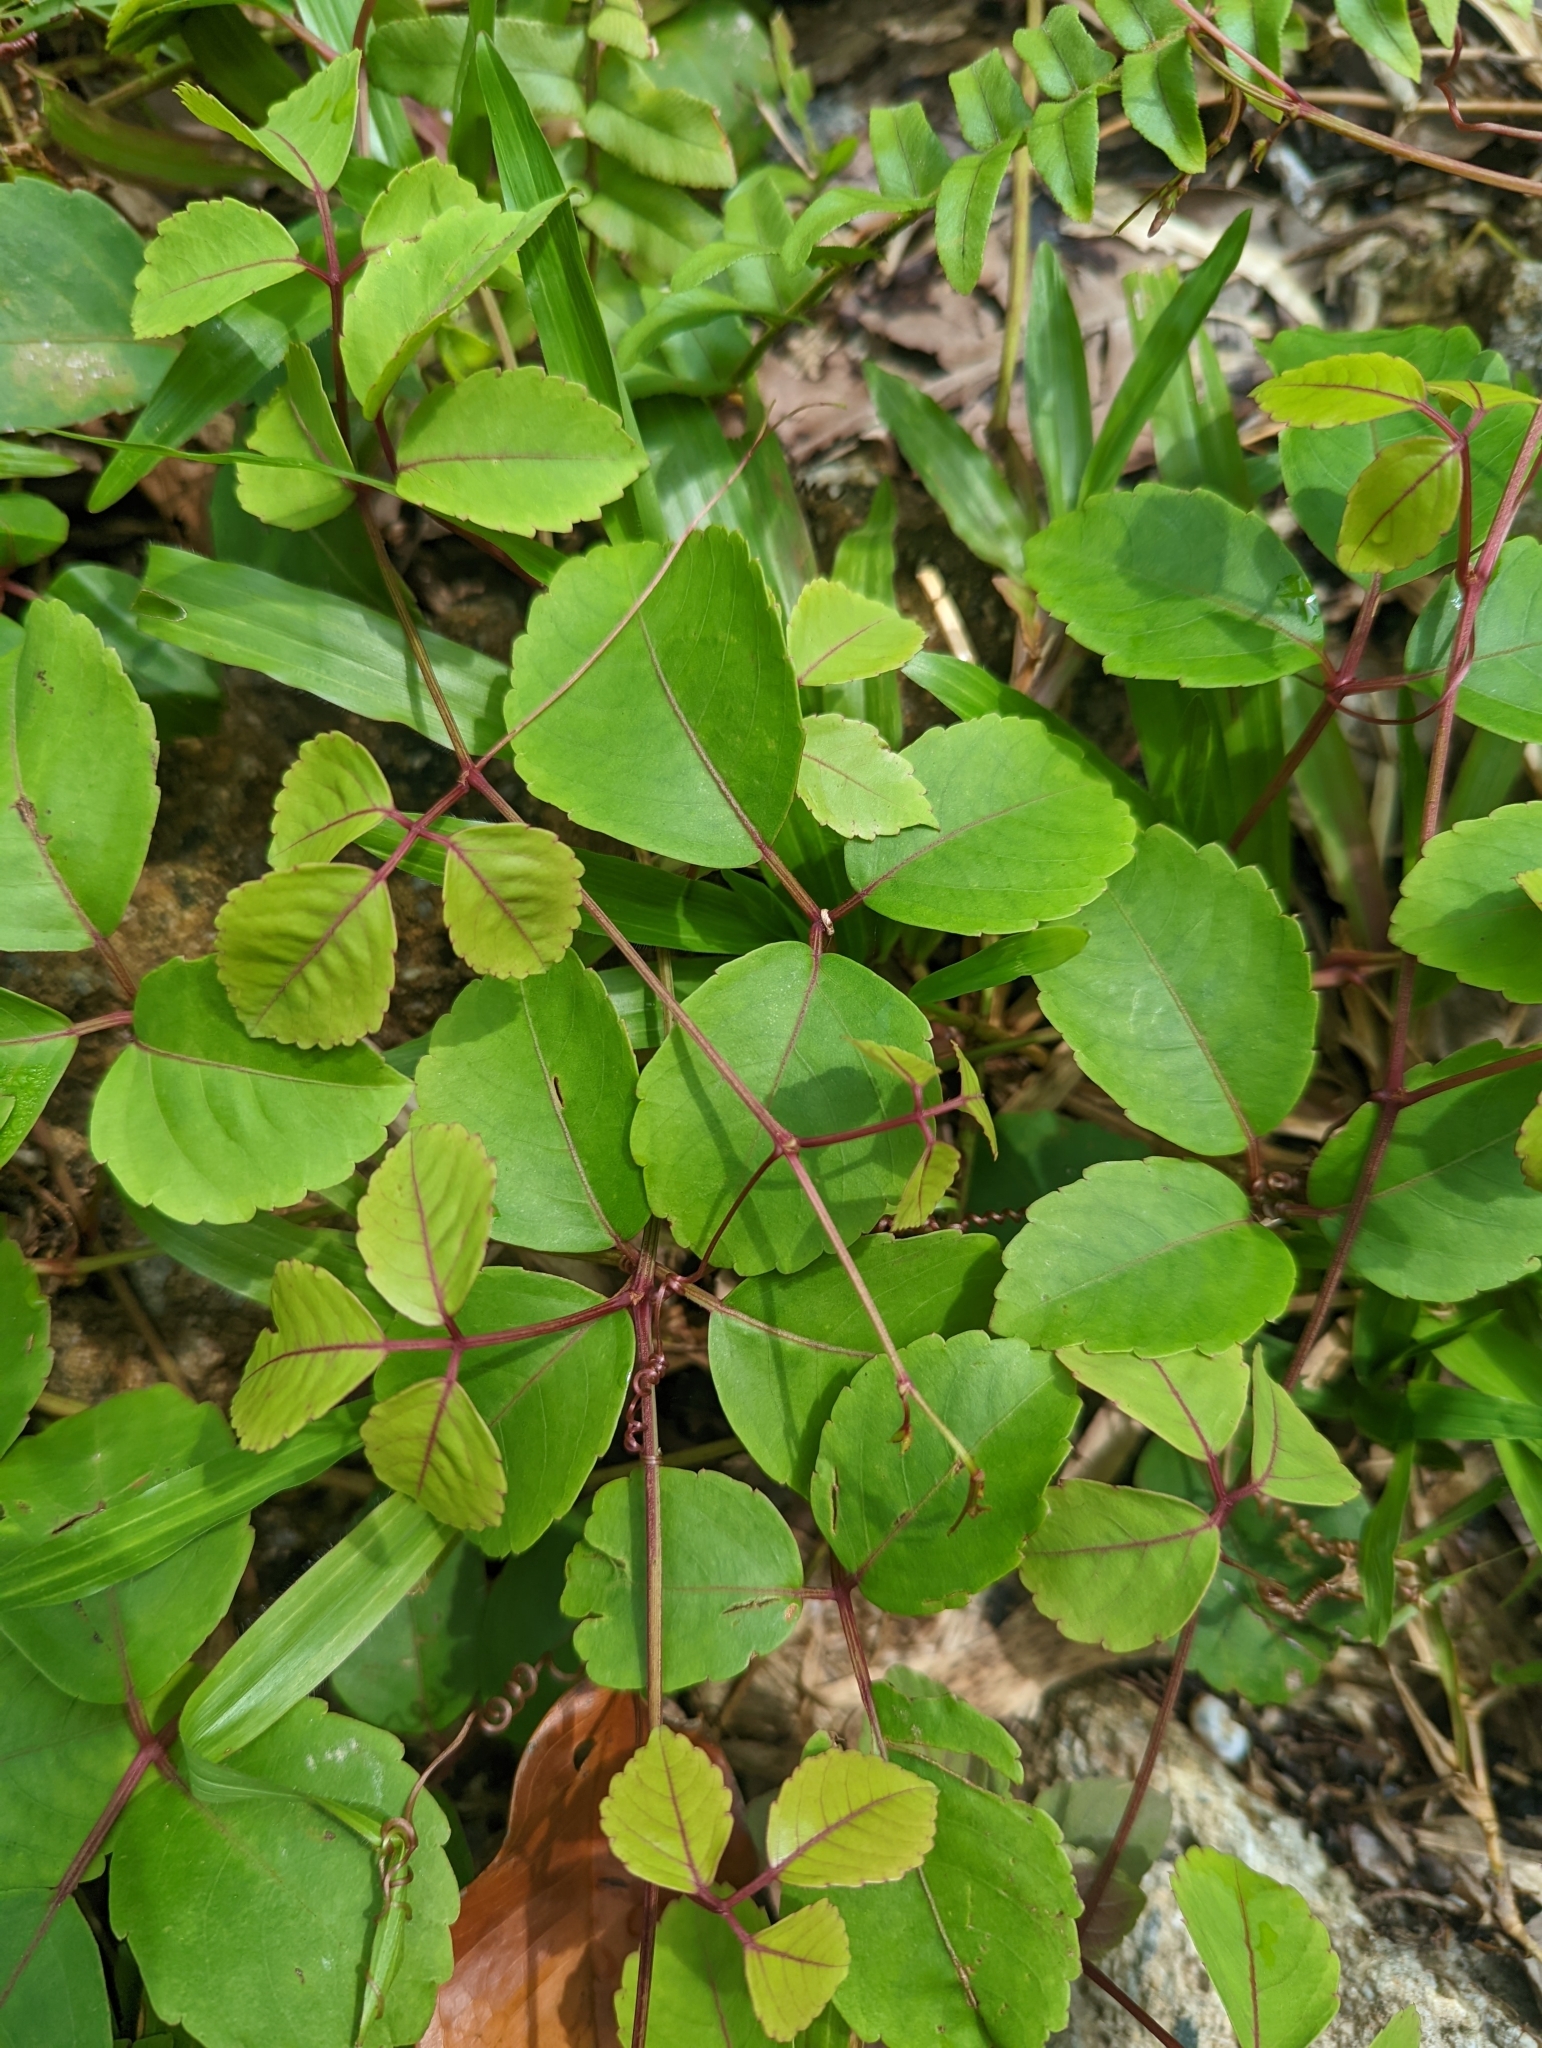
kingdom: Plantae
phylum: Tracheophyta
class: Magnoliopsida
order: Vitales
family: Vitaceae
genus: Causonis
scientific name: Causonis trifolia
